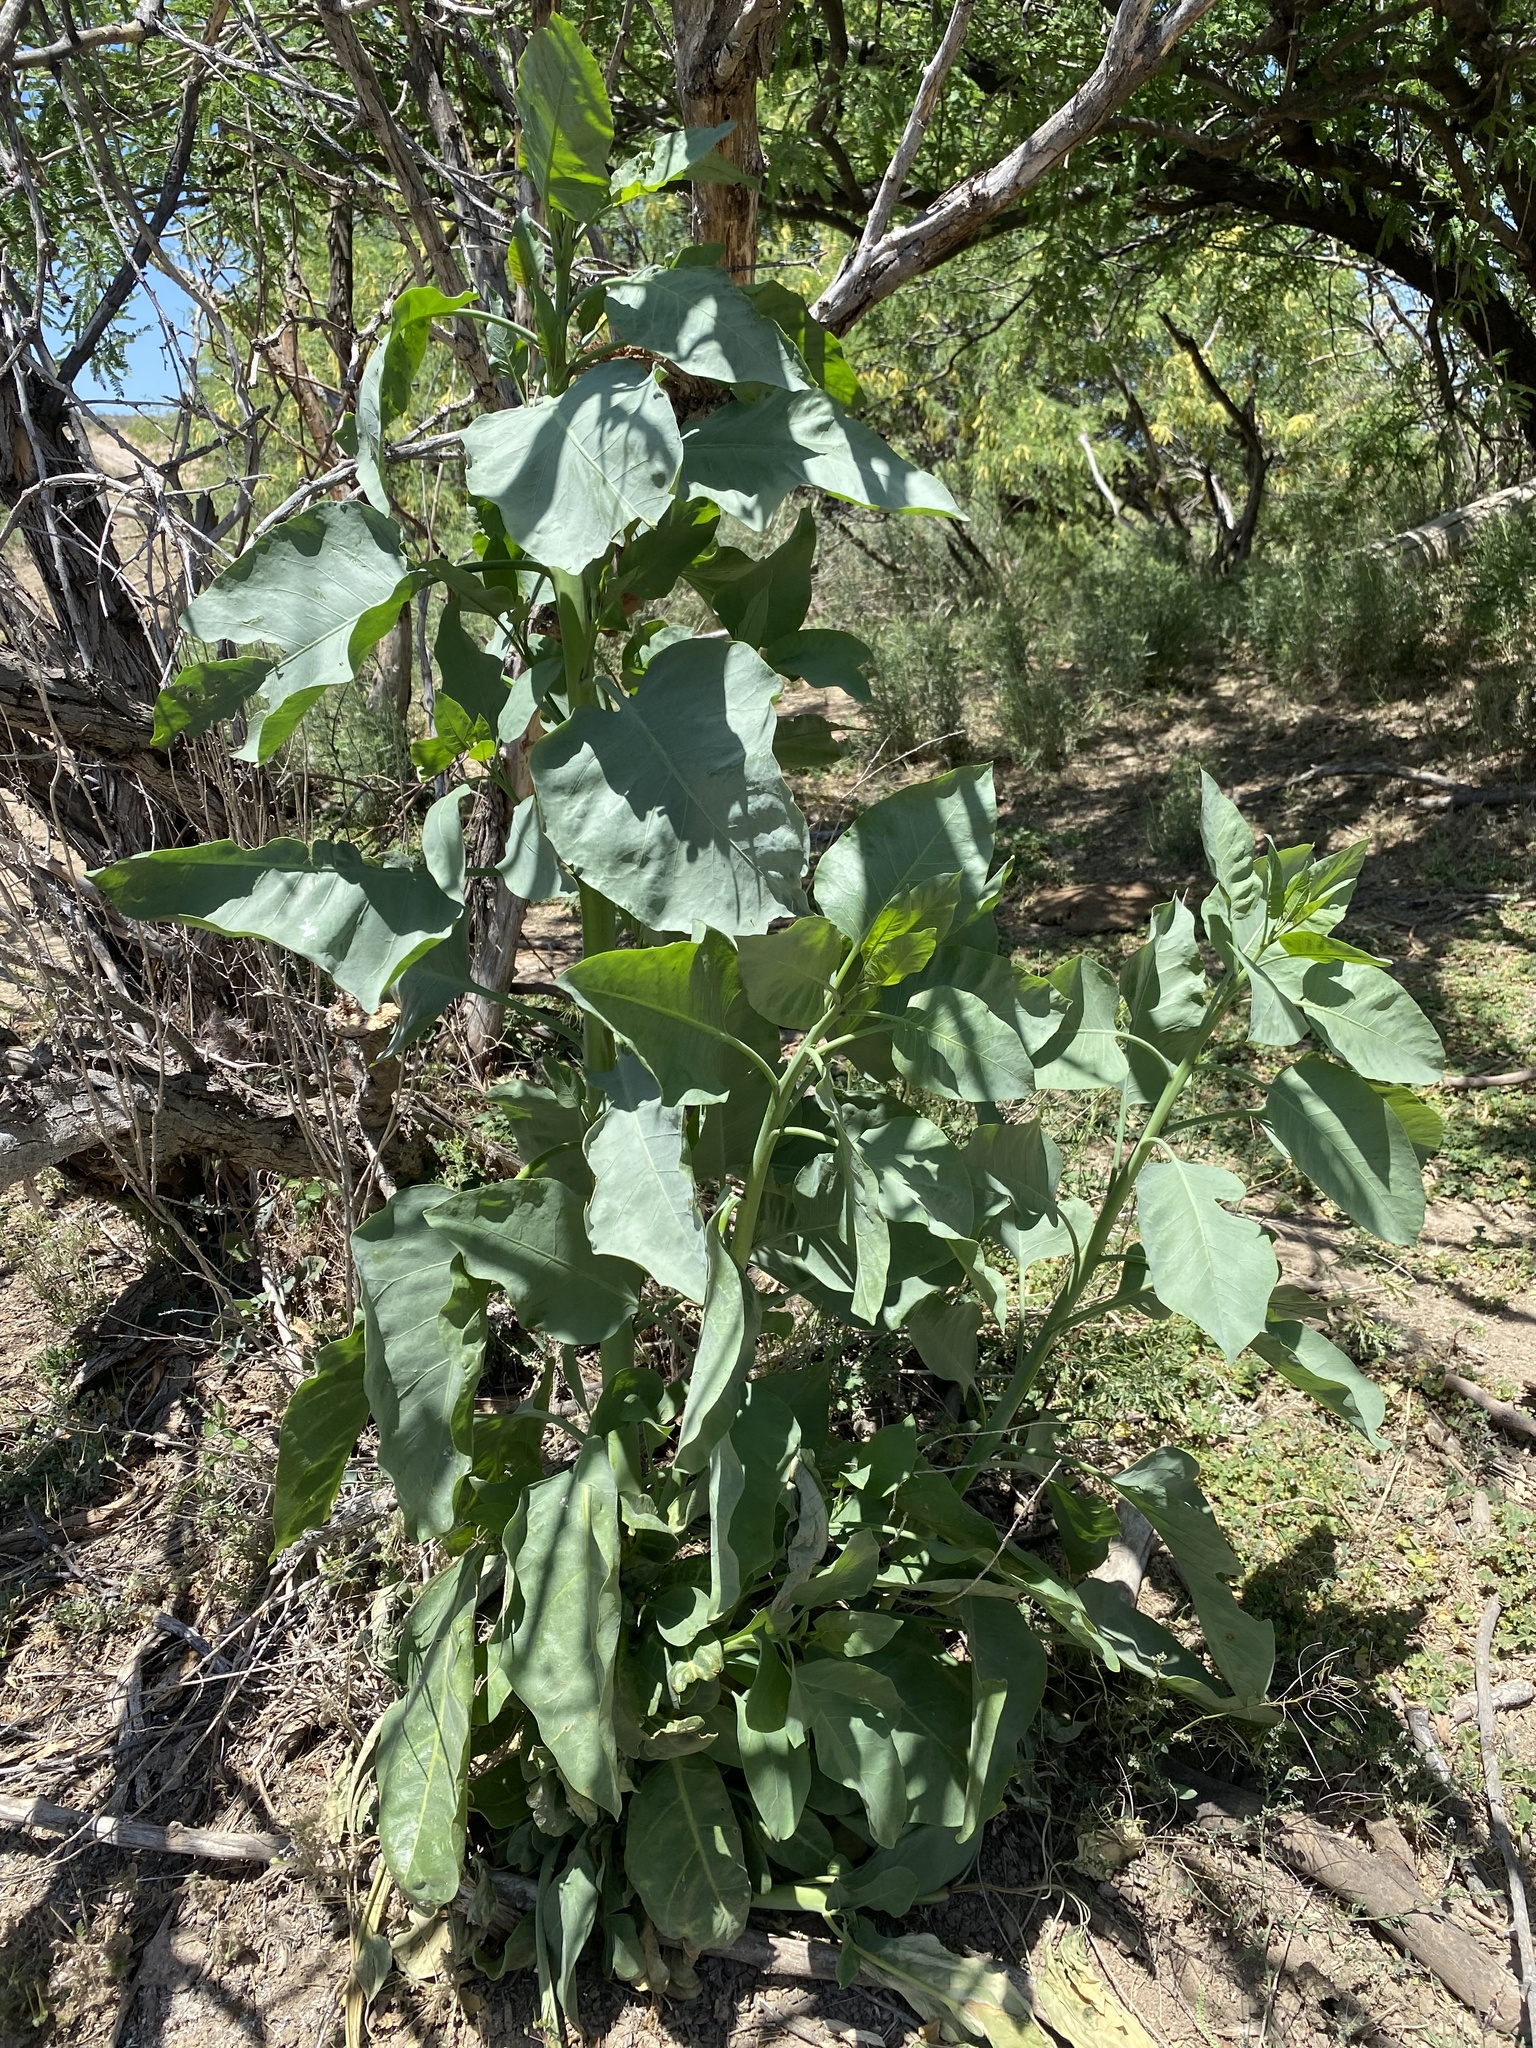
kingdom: Plantae
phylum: Tracheophyta
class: Magnoliopsida
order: Solanales
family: Solanaceae
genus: Nicotiana
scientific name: Nicotiana glauca
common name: Tree tobacco
